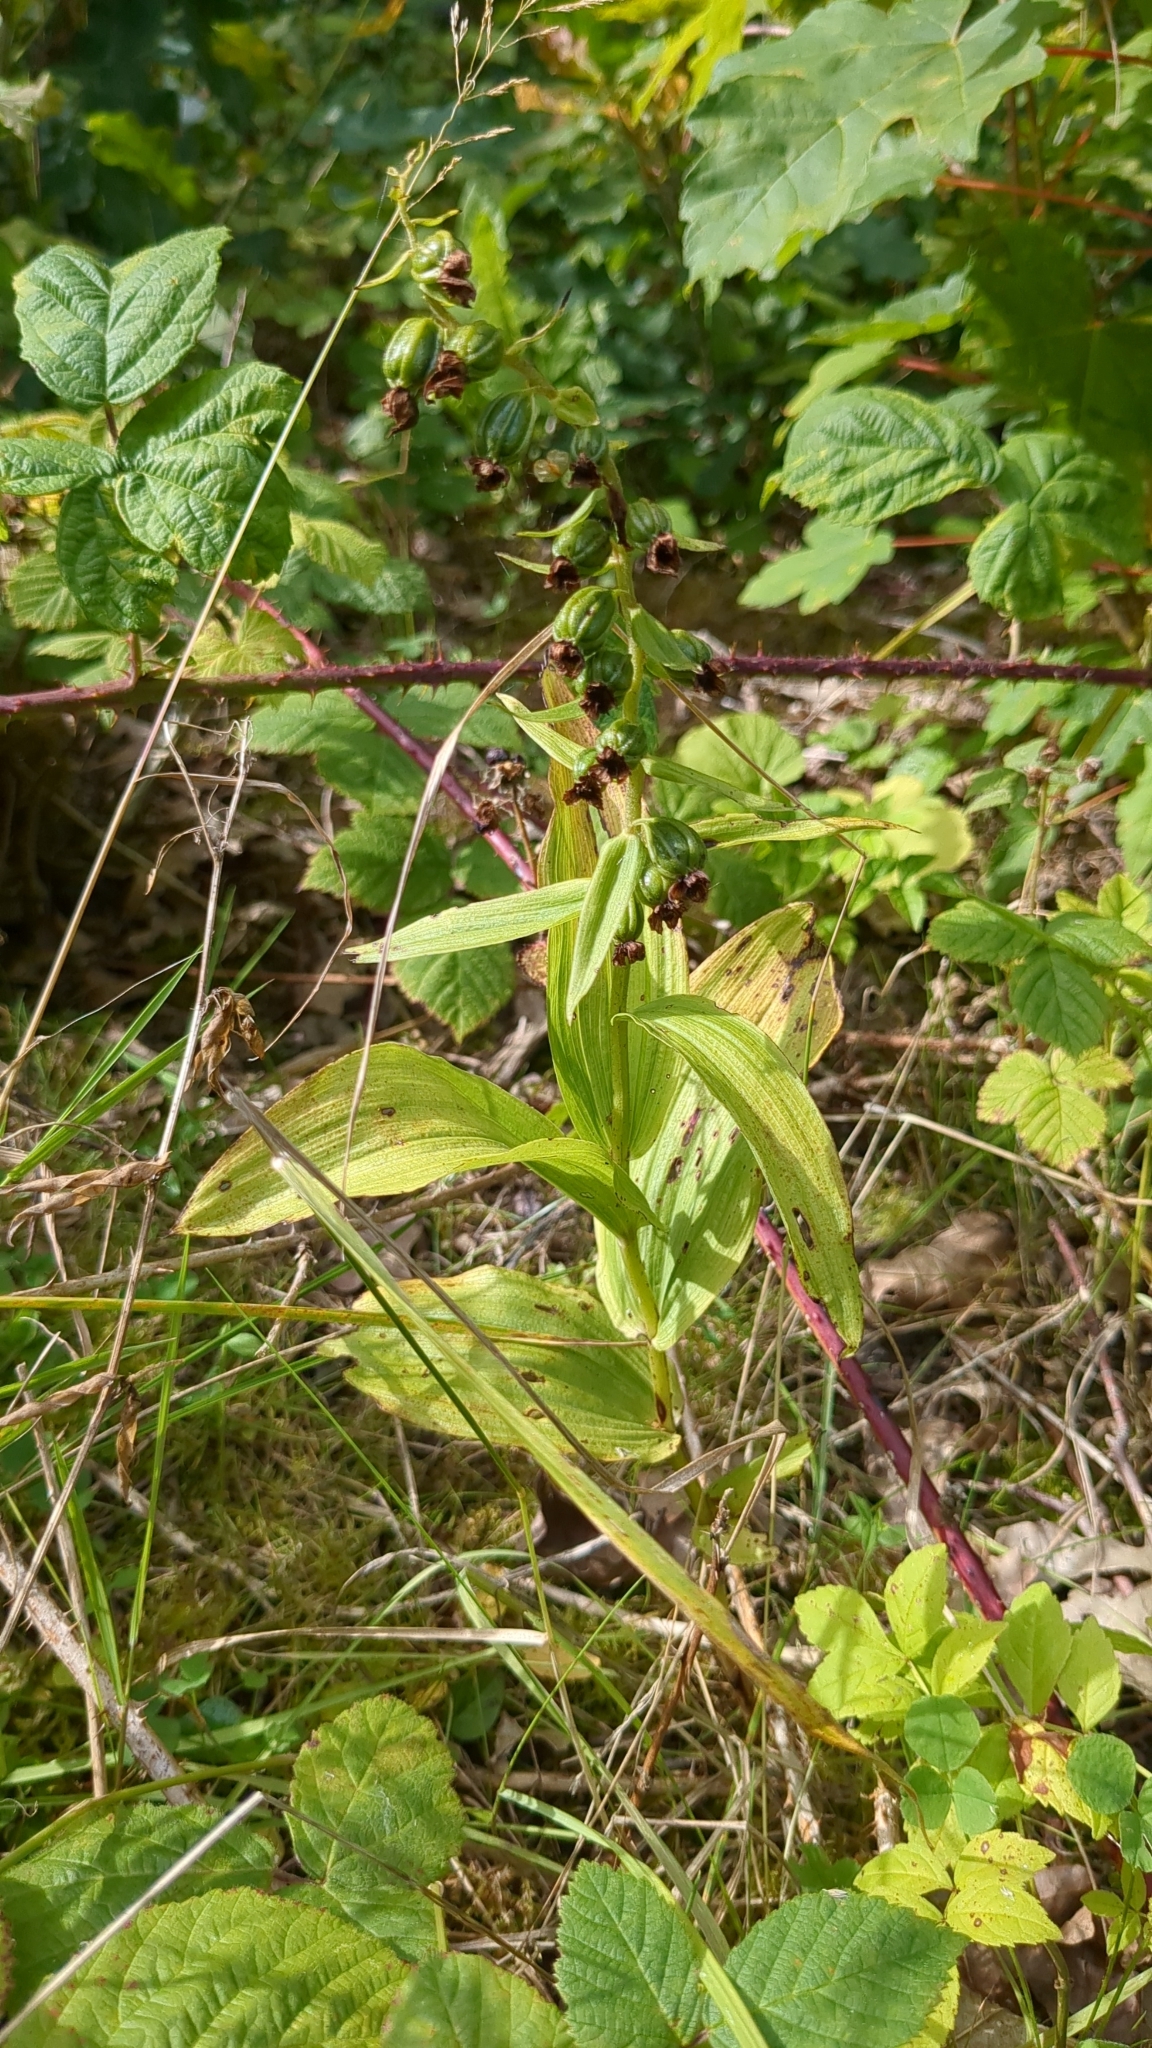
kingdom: Plantae
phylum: Tracheophyta
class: Liliopsida
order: Asparagales
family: Orchidaceae
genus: Epipactis
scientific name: Epipactis helleborine
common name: Broad-leaved helleborine
